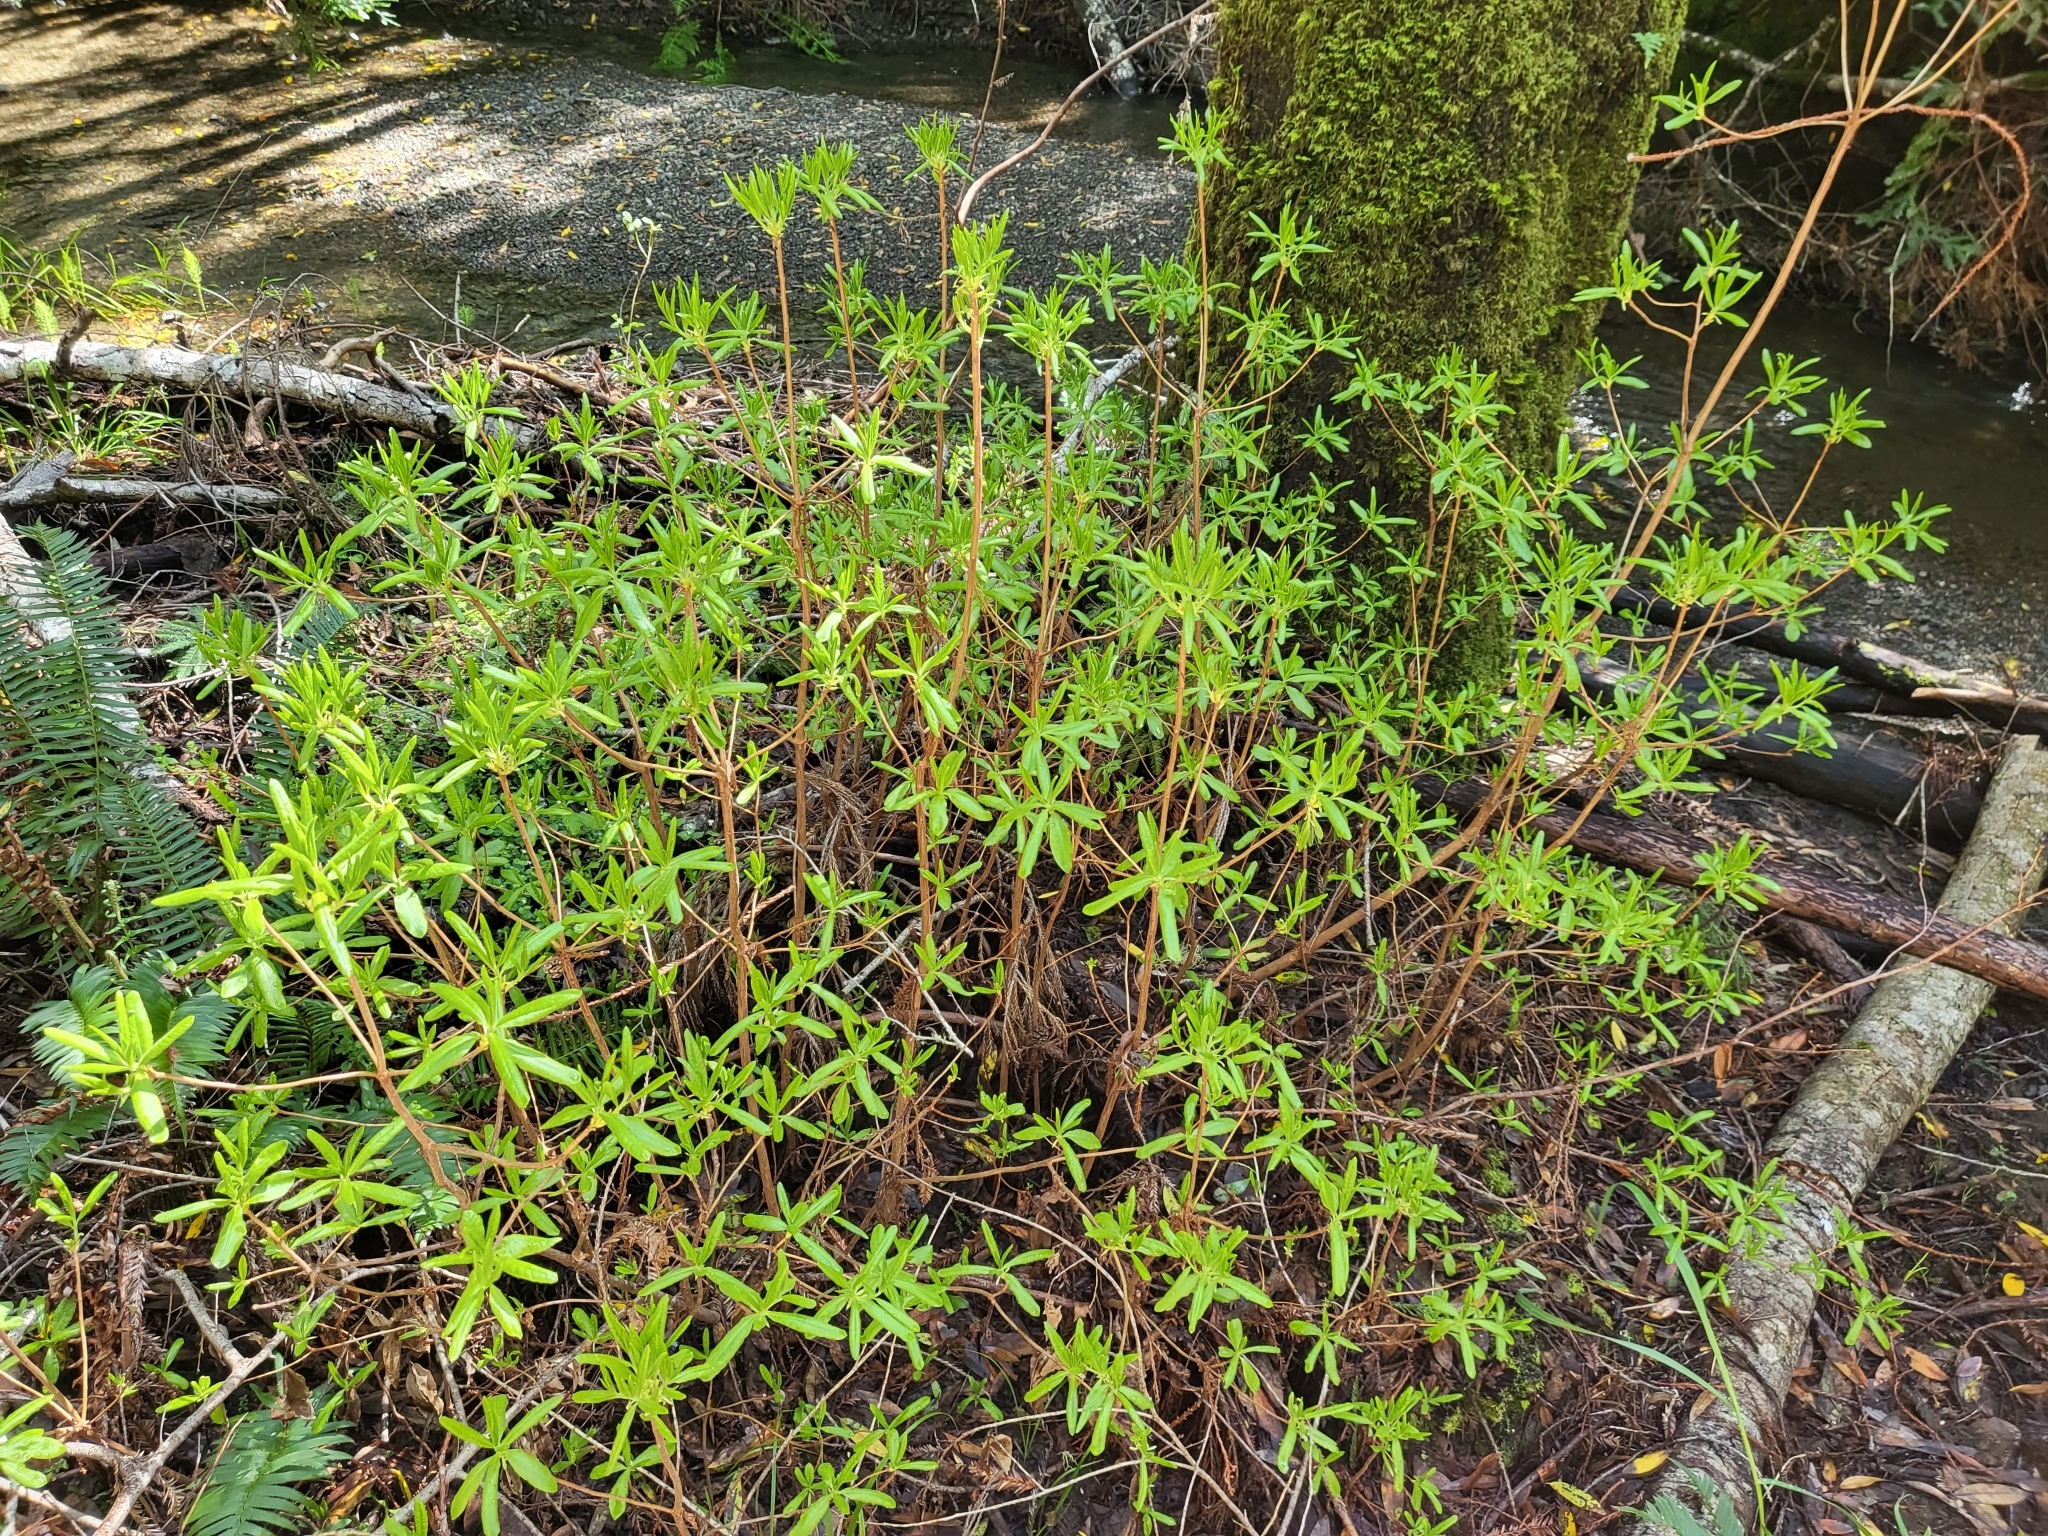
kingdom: Plantae
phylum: Tracheophyta
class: Magnoliopsida
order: Ericales
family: Ericaceae
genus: Rhododendron
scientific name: Rhododendron occidentale
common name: Western azalea
